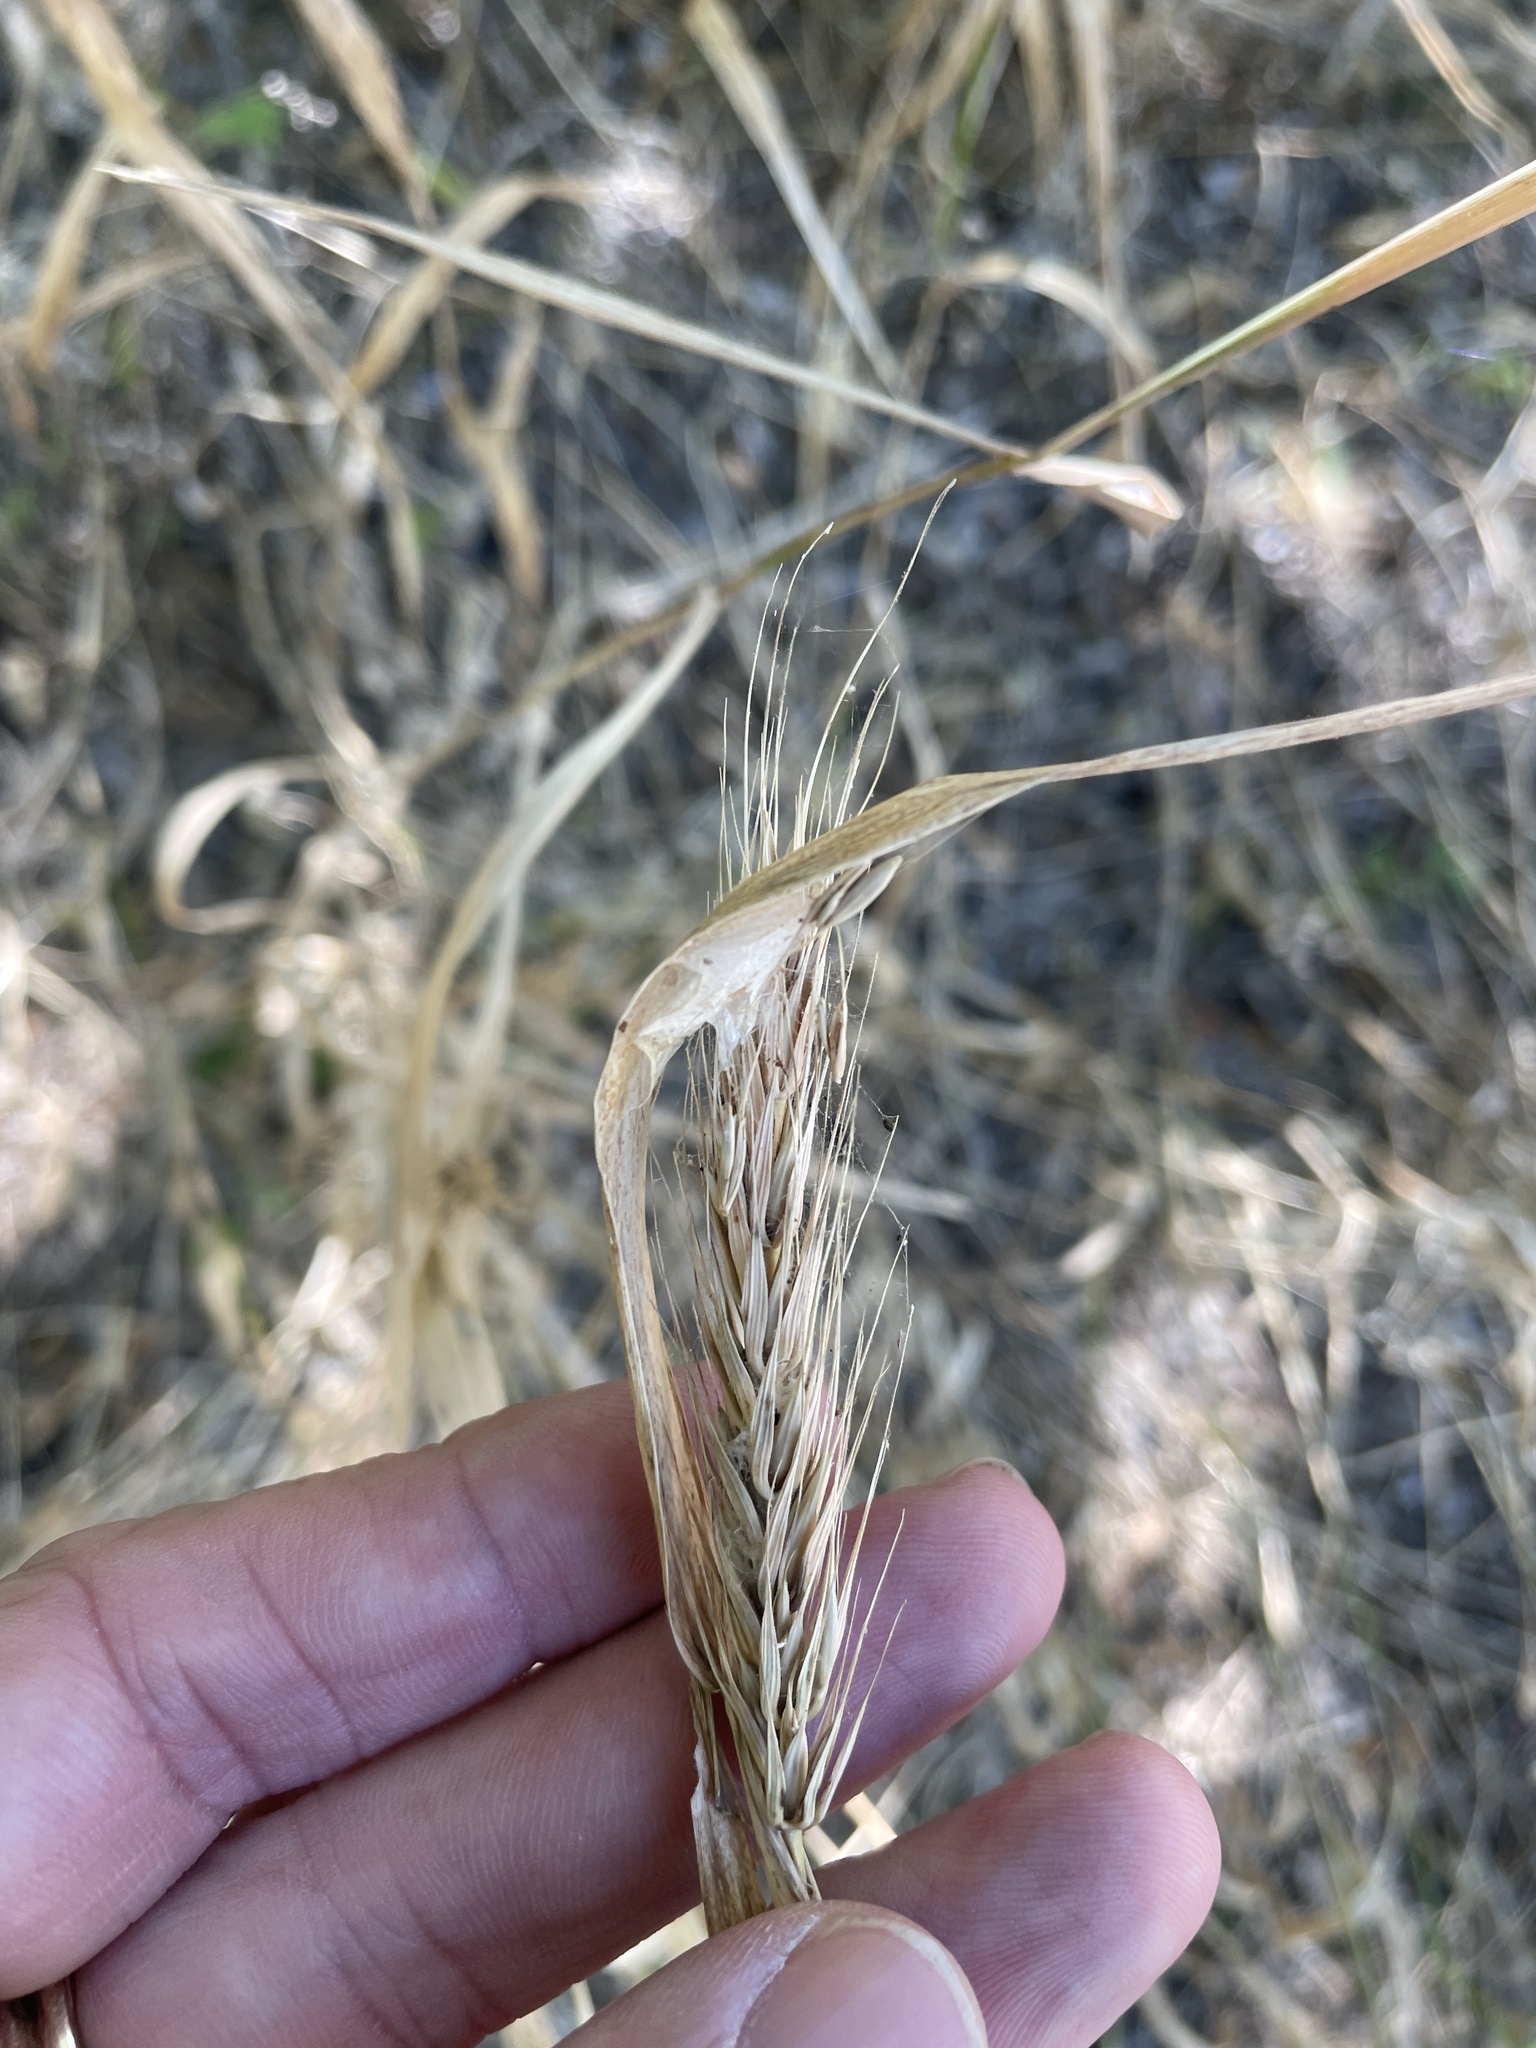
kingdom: Plantae
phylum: Tracheophyta
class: Liliopsida
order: Poales
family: Poaceae
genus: Elymus
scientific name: Elymus virginicus
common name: Common eastern wildrye
